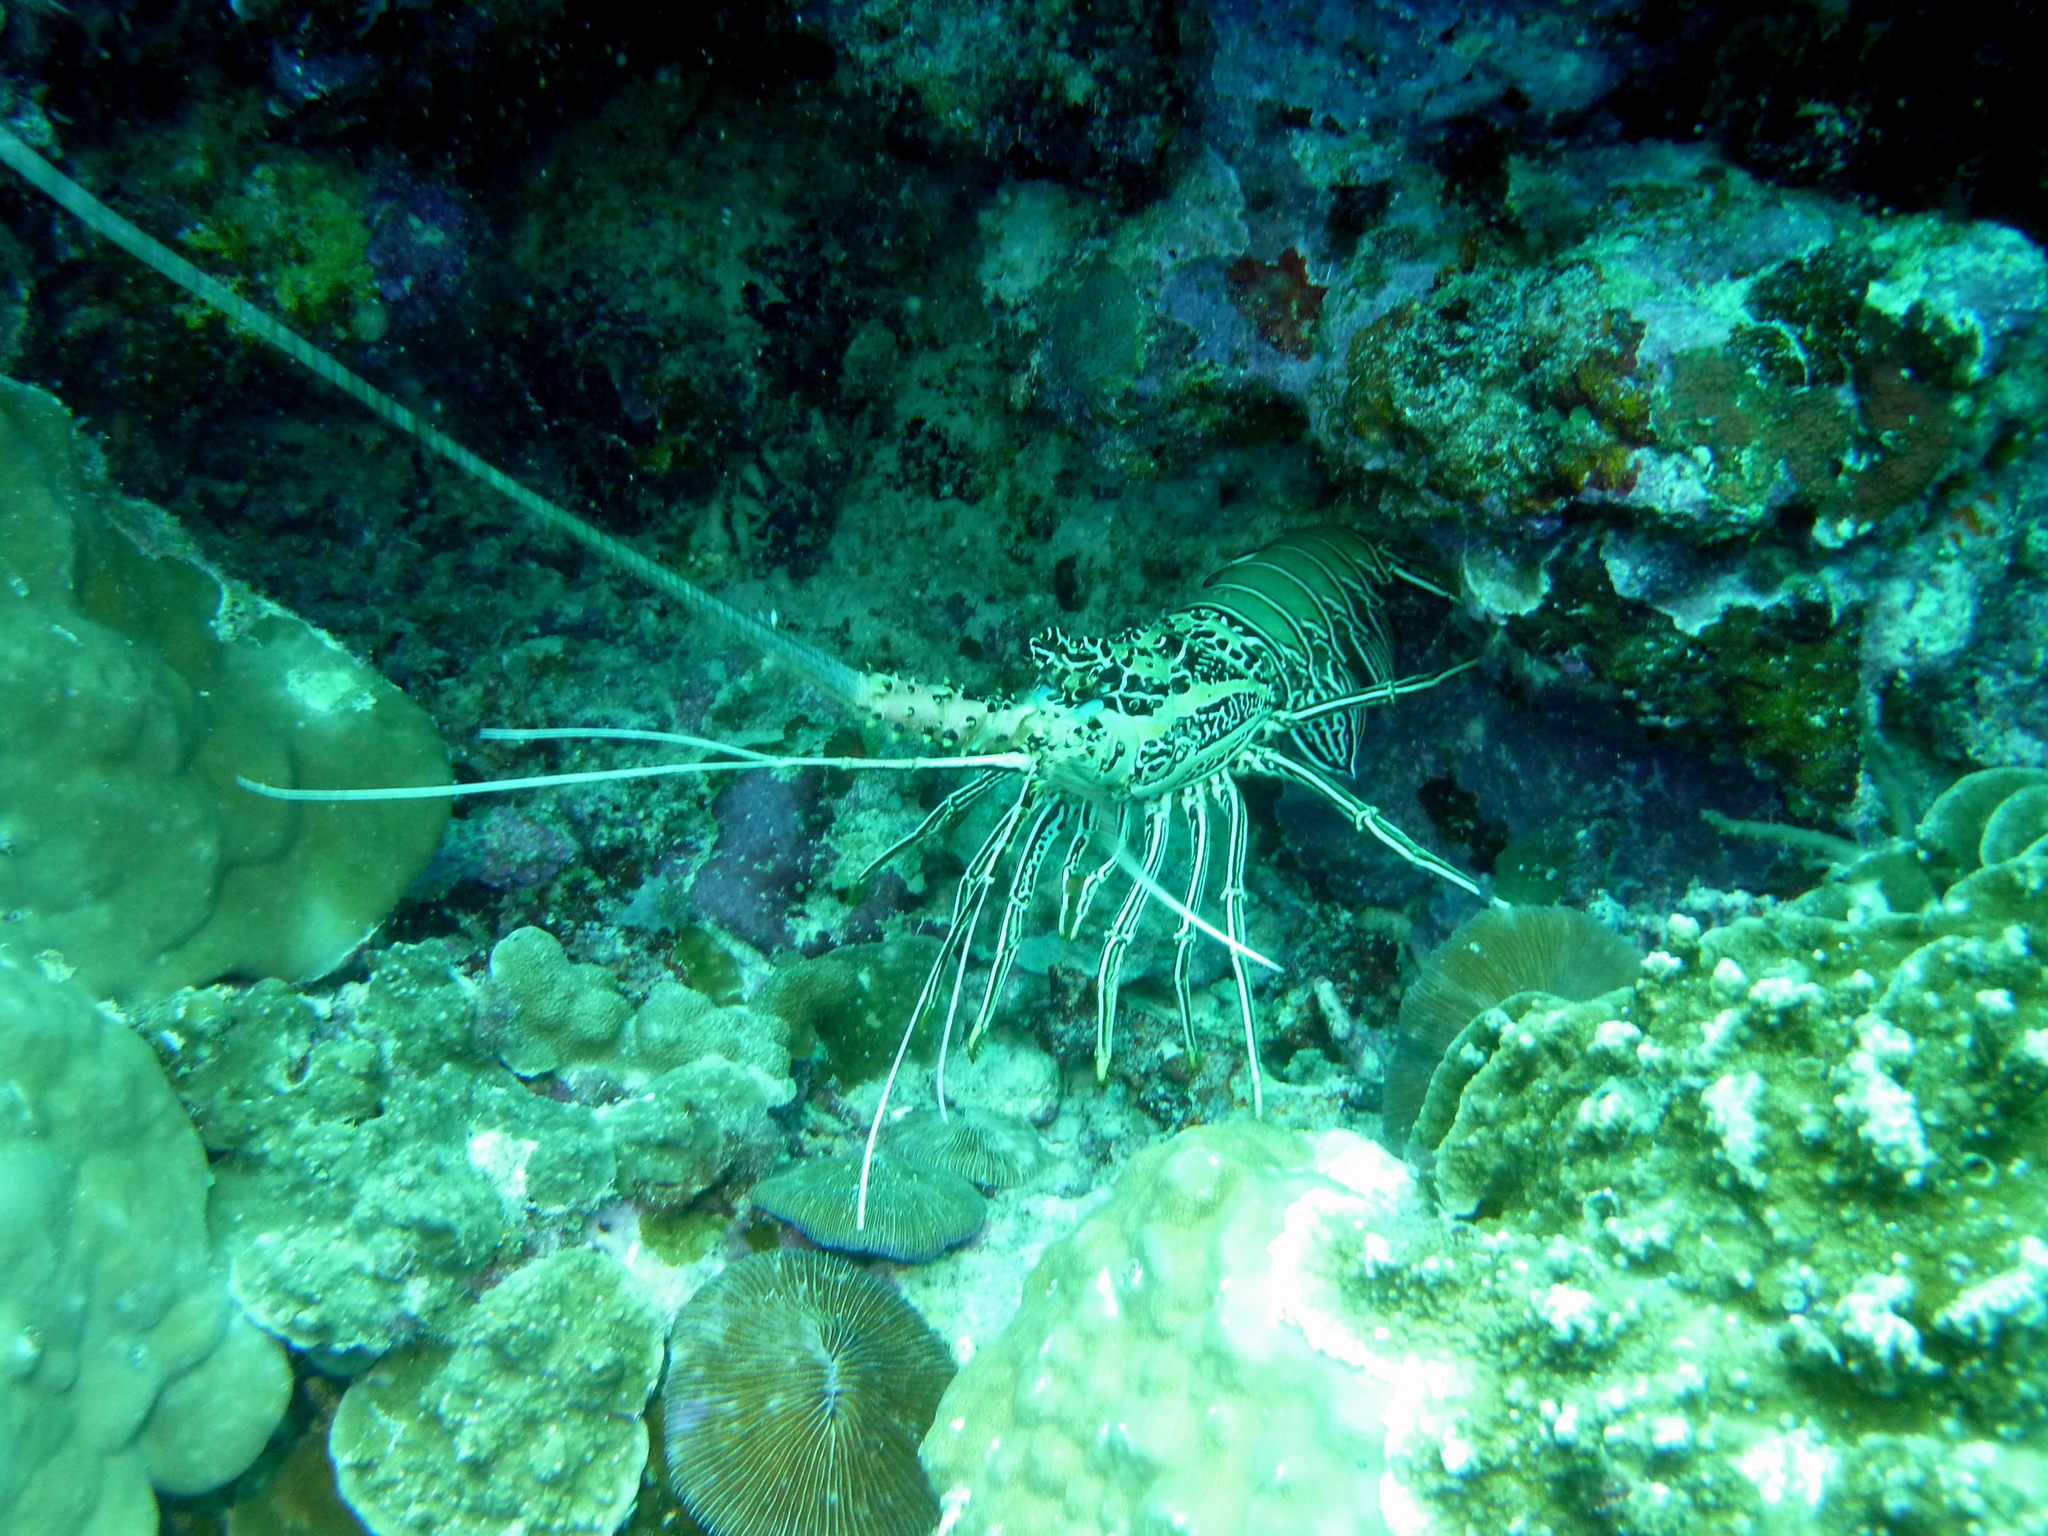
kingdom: Animalia
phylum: Arthropoda
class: Malacostraca
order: Decapoda
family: Palinuridae
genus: Panulirus
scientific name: Panulirus versicolor
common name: Painted spiny lobster
